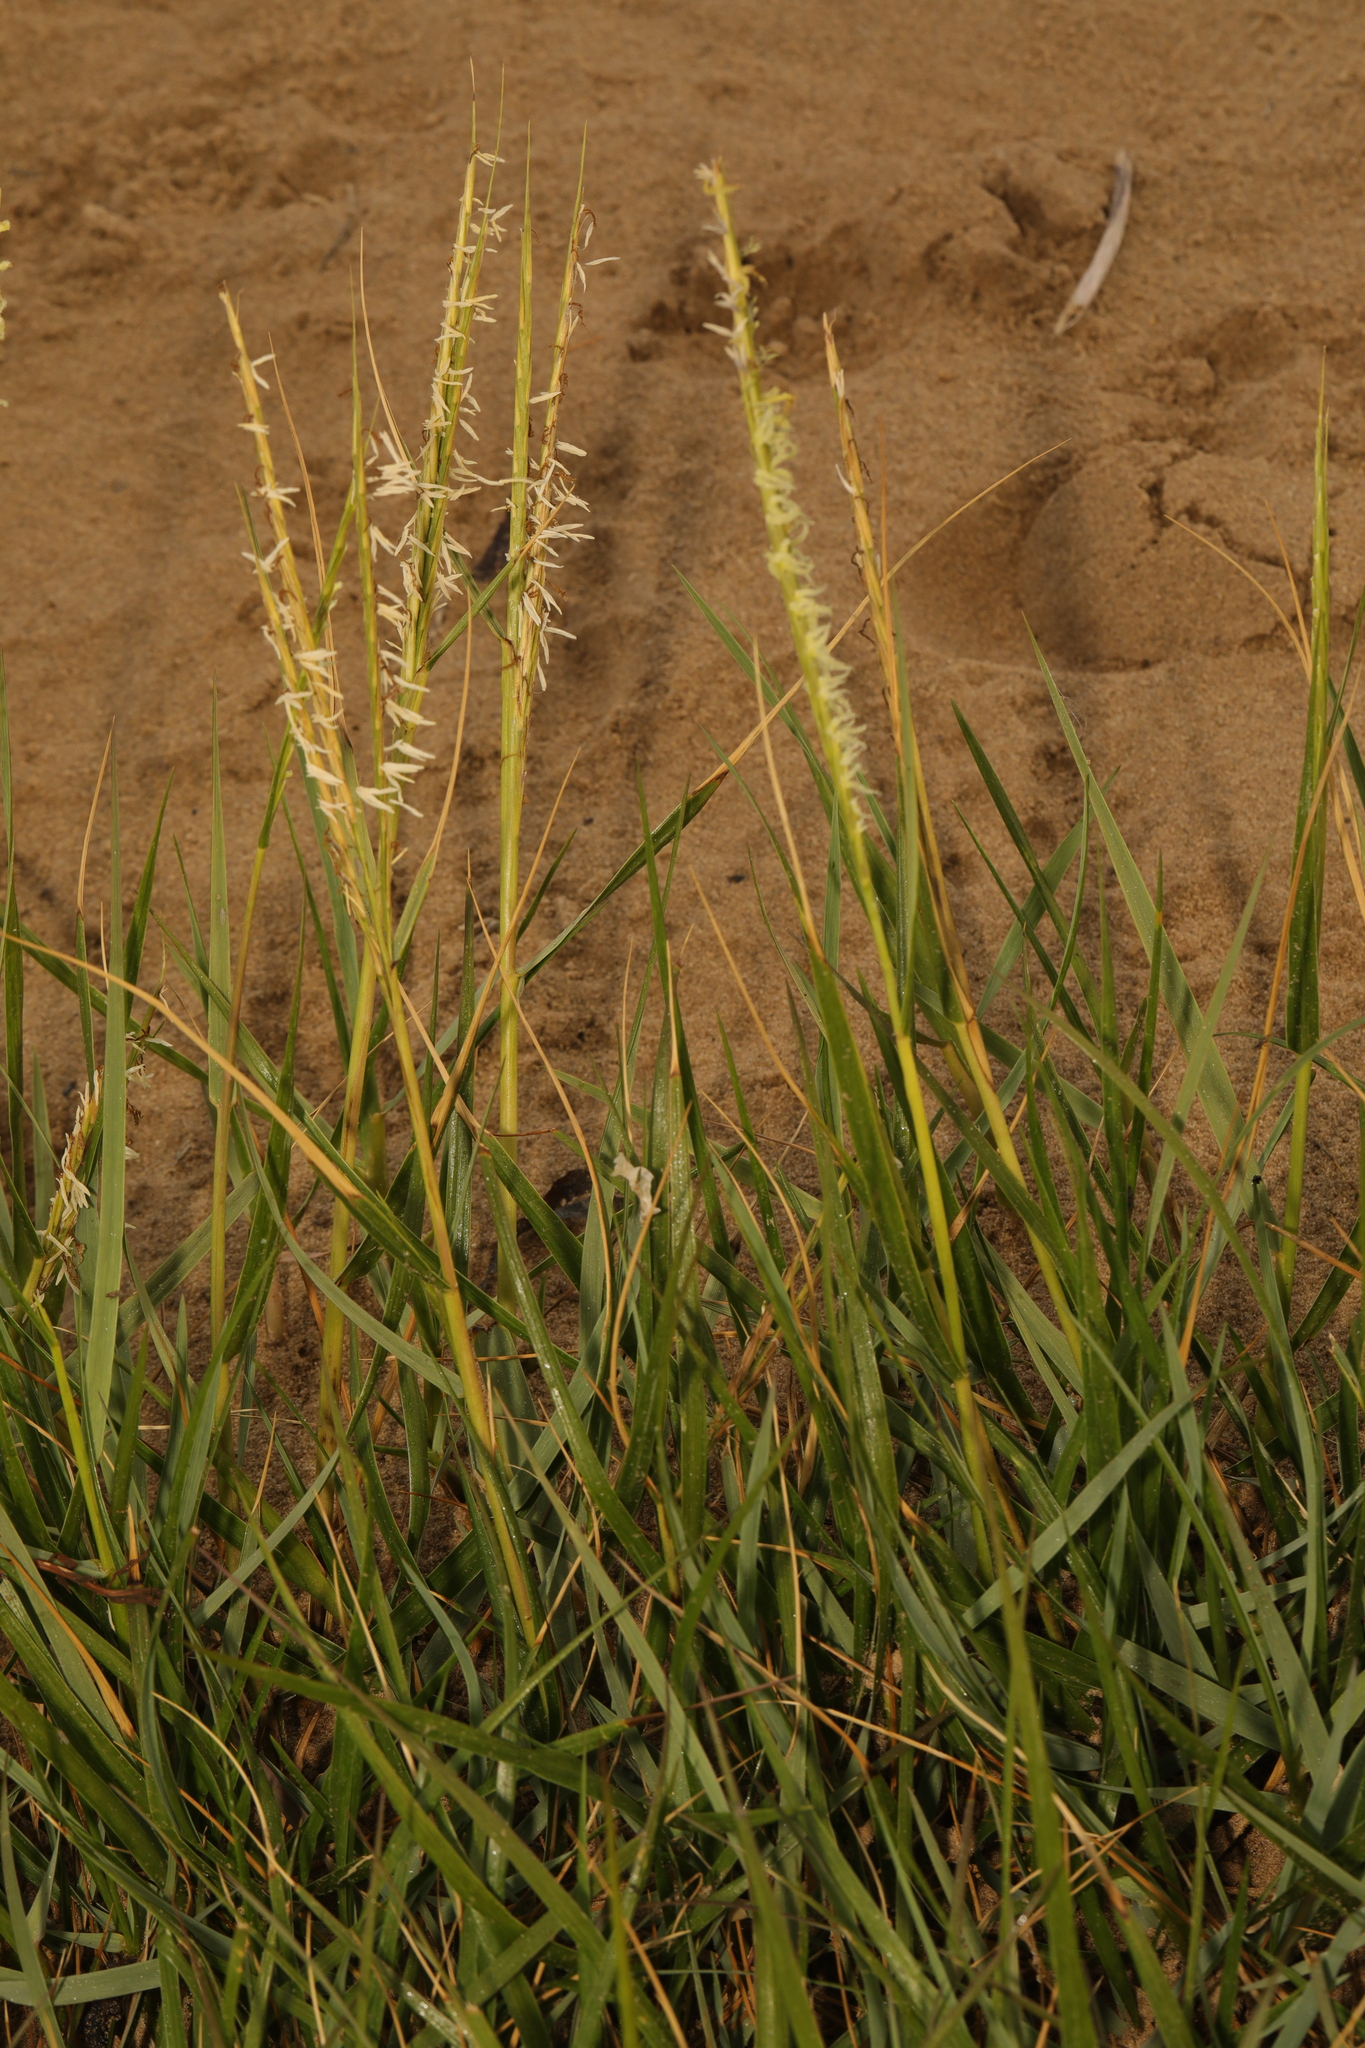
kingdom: Plantae
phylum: Tracheophyta
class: Liliopsida
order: Poales
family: Poaceae
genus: Sporobolus
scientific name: Sporobolus anglicus
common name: English cordgrass
